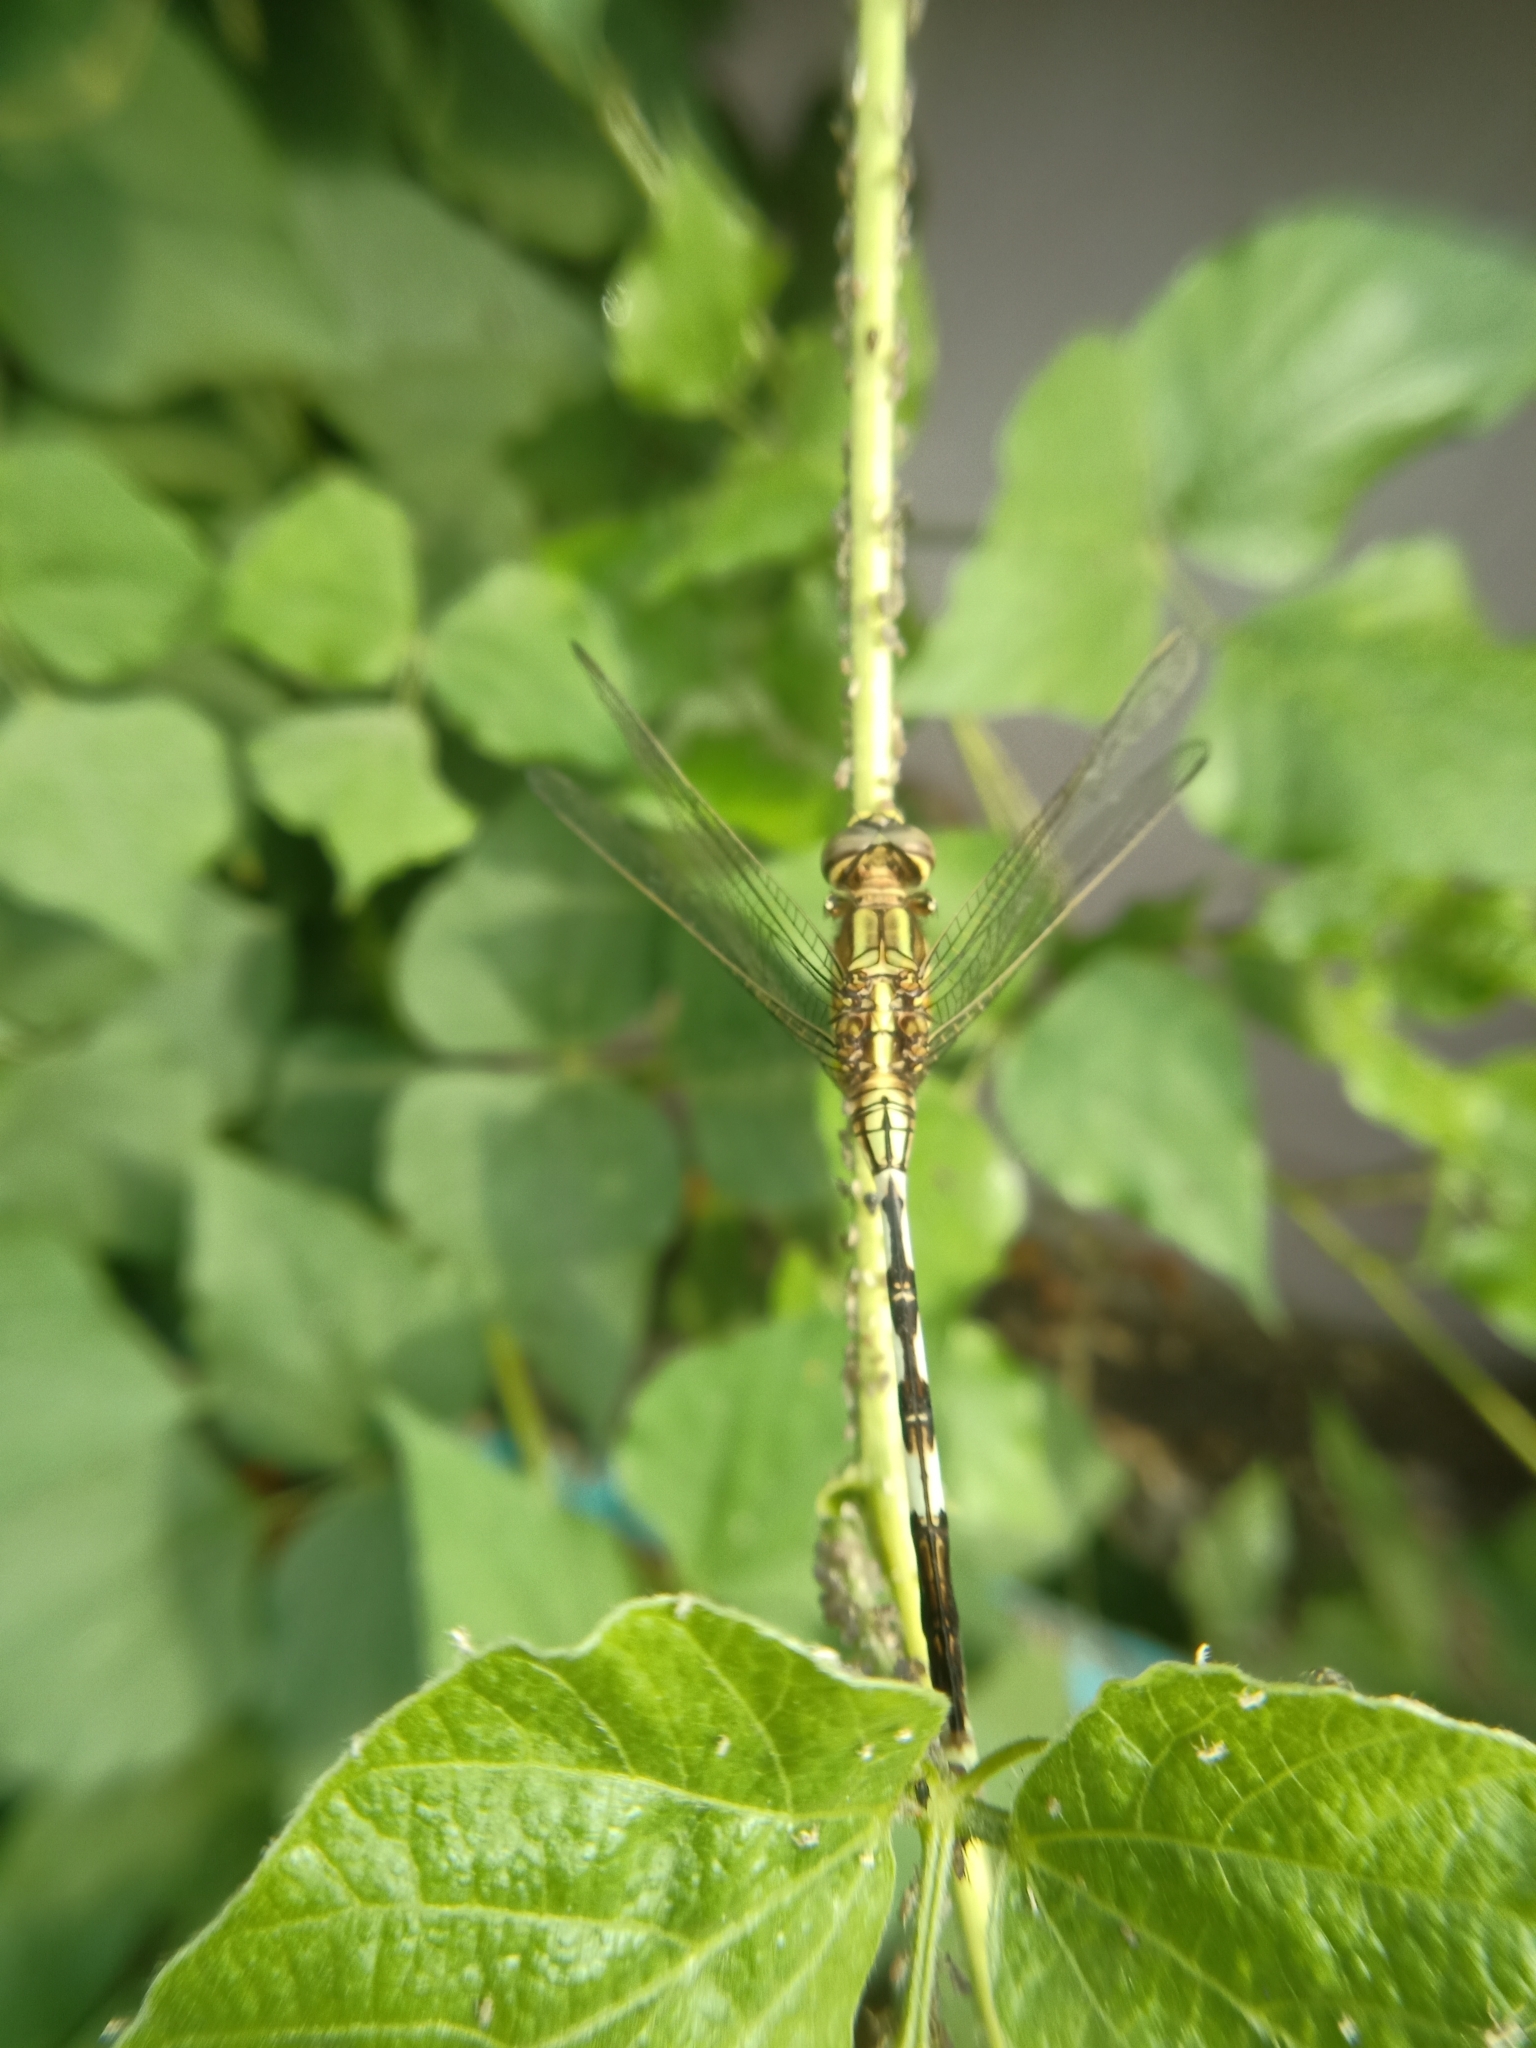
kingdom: Animalia
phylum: Arthropoda
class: Insecta
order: Odonata
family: Libellulidae
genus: Orthetrum
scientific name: Orthetrum sabina
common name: Slender skimmer
